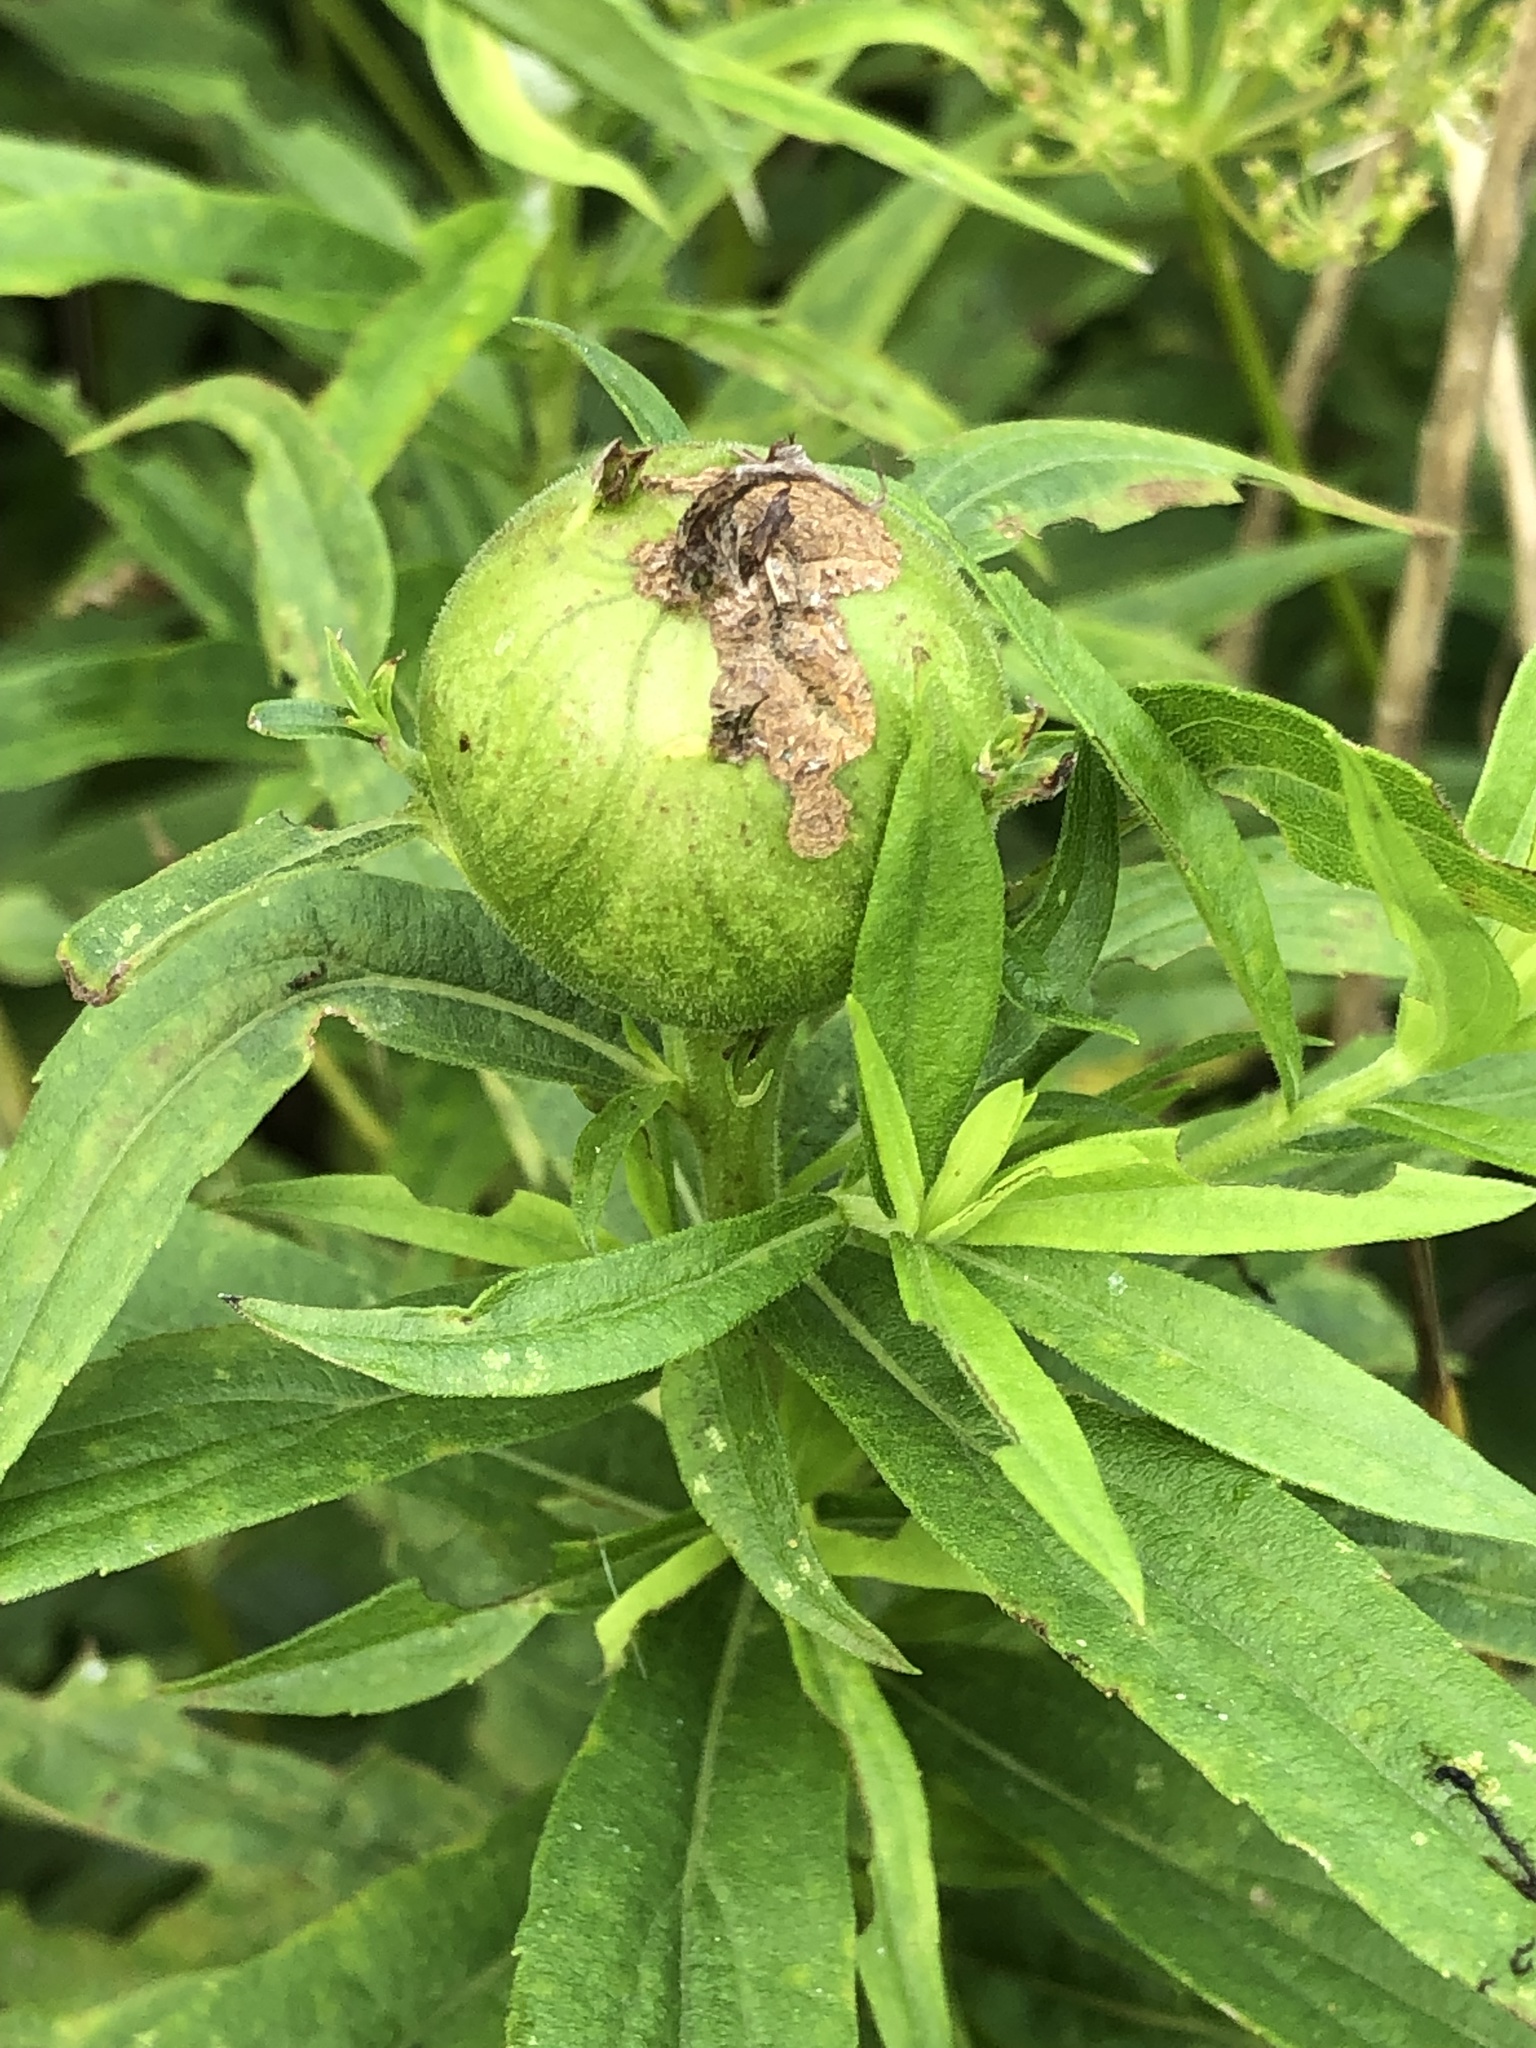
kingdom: Animalia
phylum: Arthropoda
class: Insecta
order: Diptera
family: Tephritidae
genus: Eurosta
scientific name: Eurosta solidaginis
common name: Goldenrod gall fly
